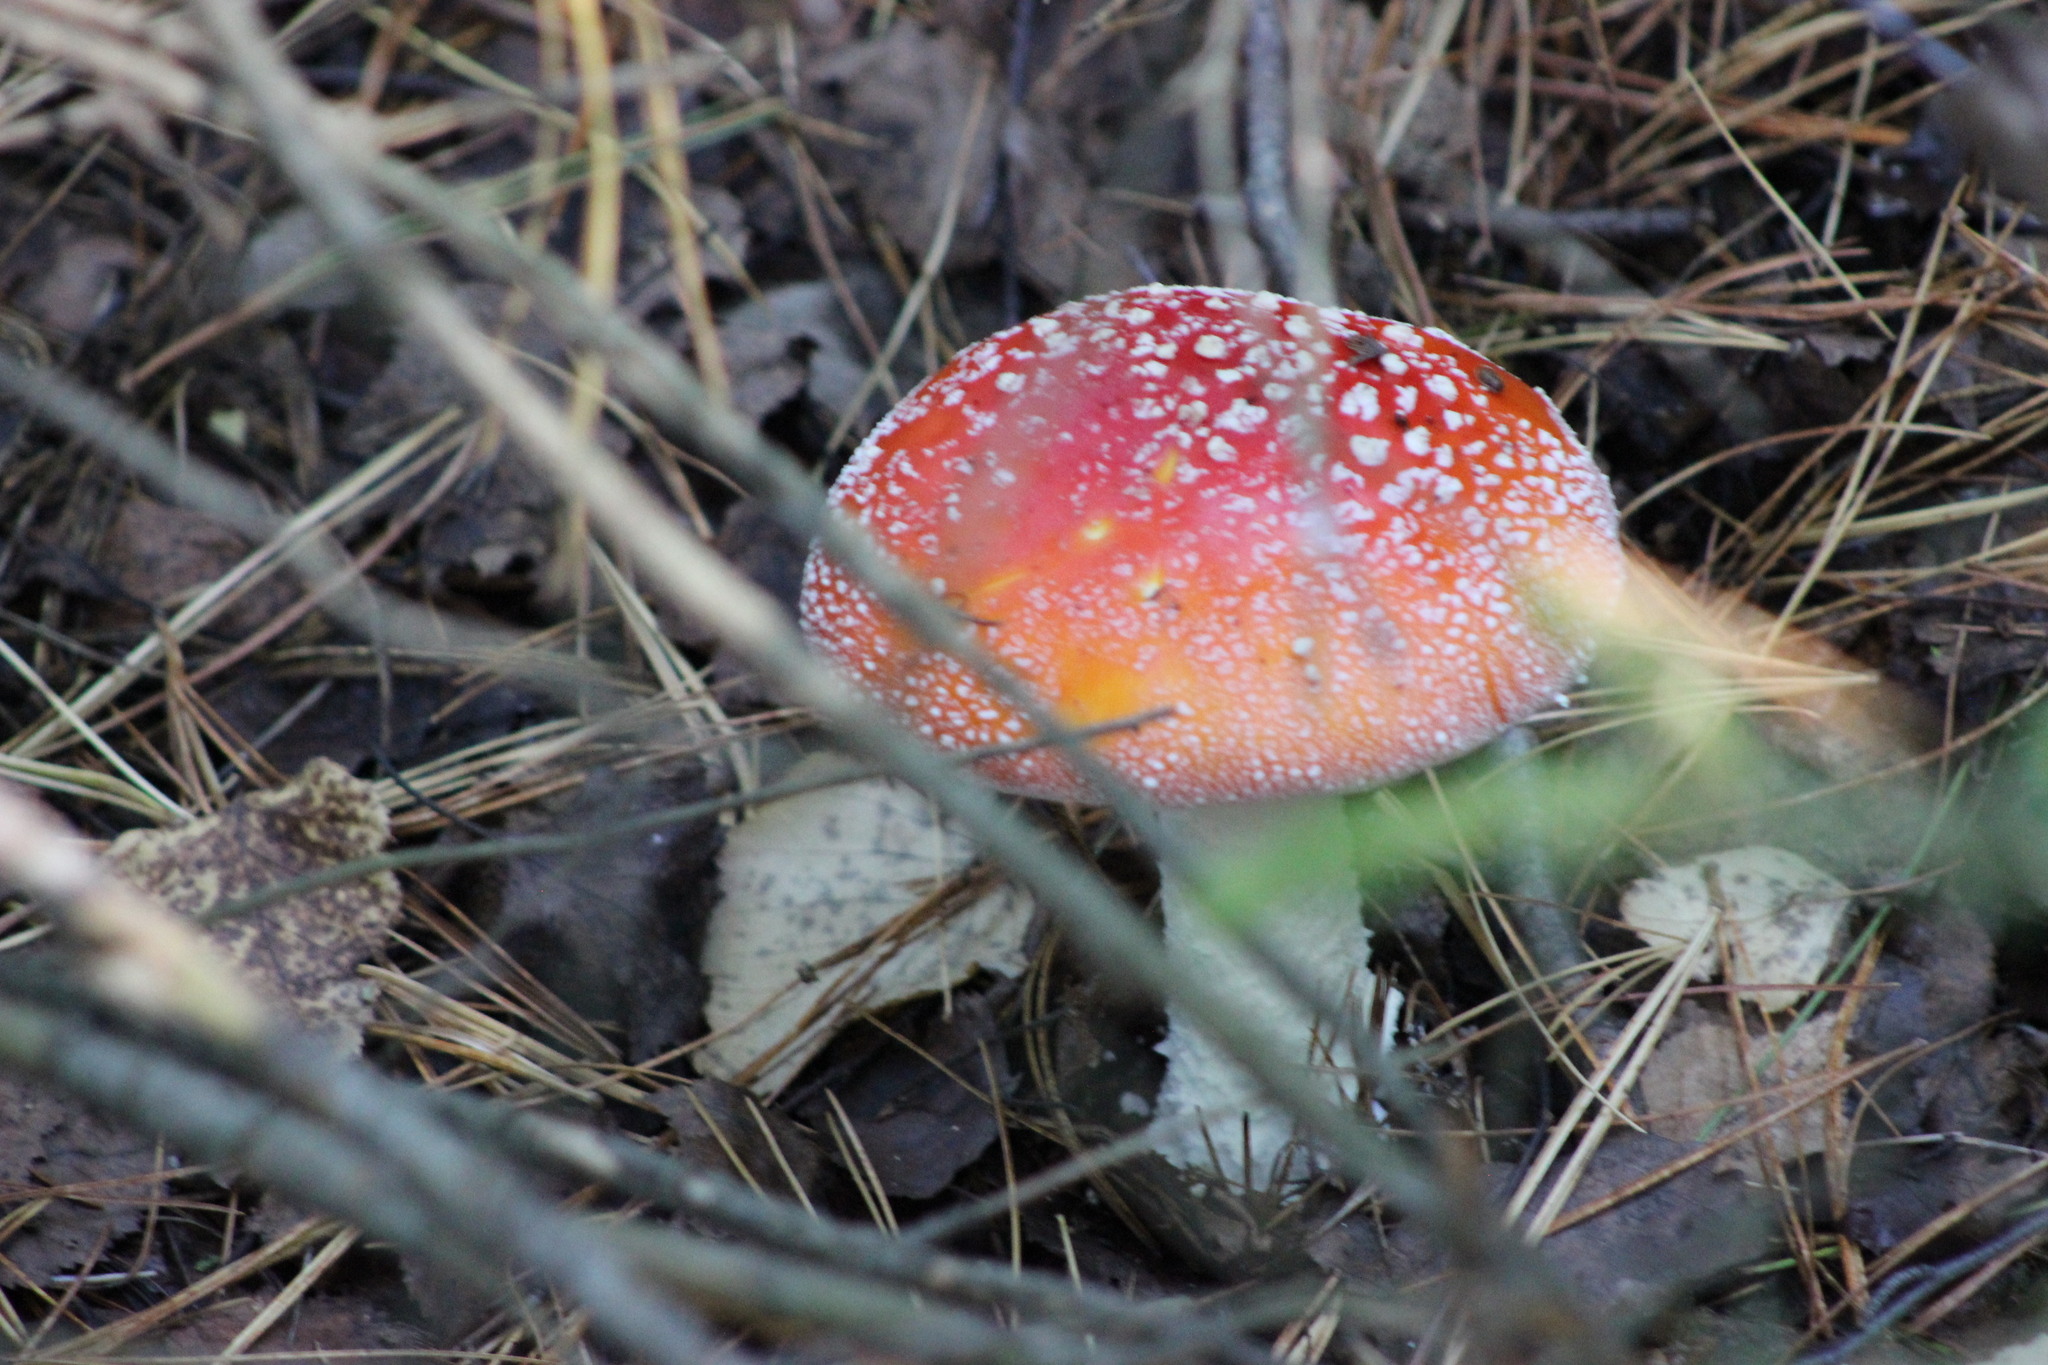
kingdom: Fungi
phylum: Basidiomycota
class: Agaricomycetes
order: Agaricales
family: Amanitaceae
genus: Amanita
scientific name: Amanita muscaria
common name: Fly agaric
